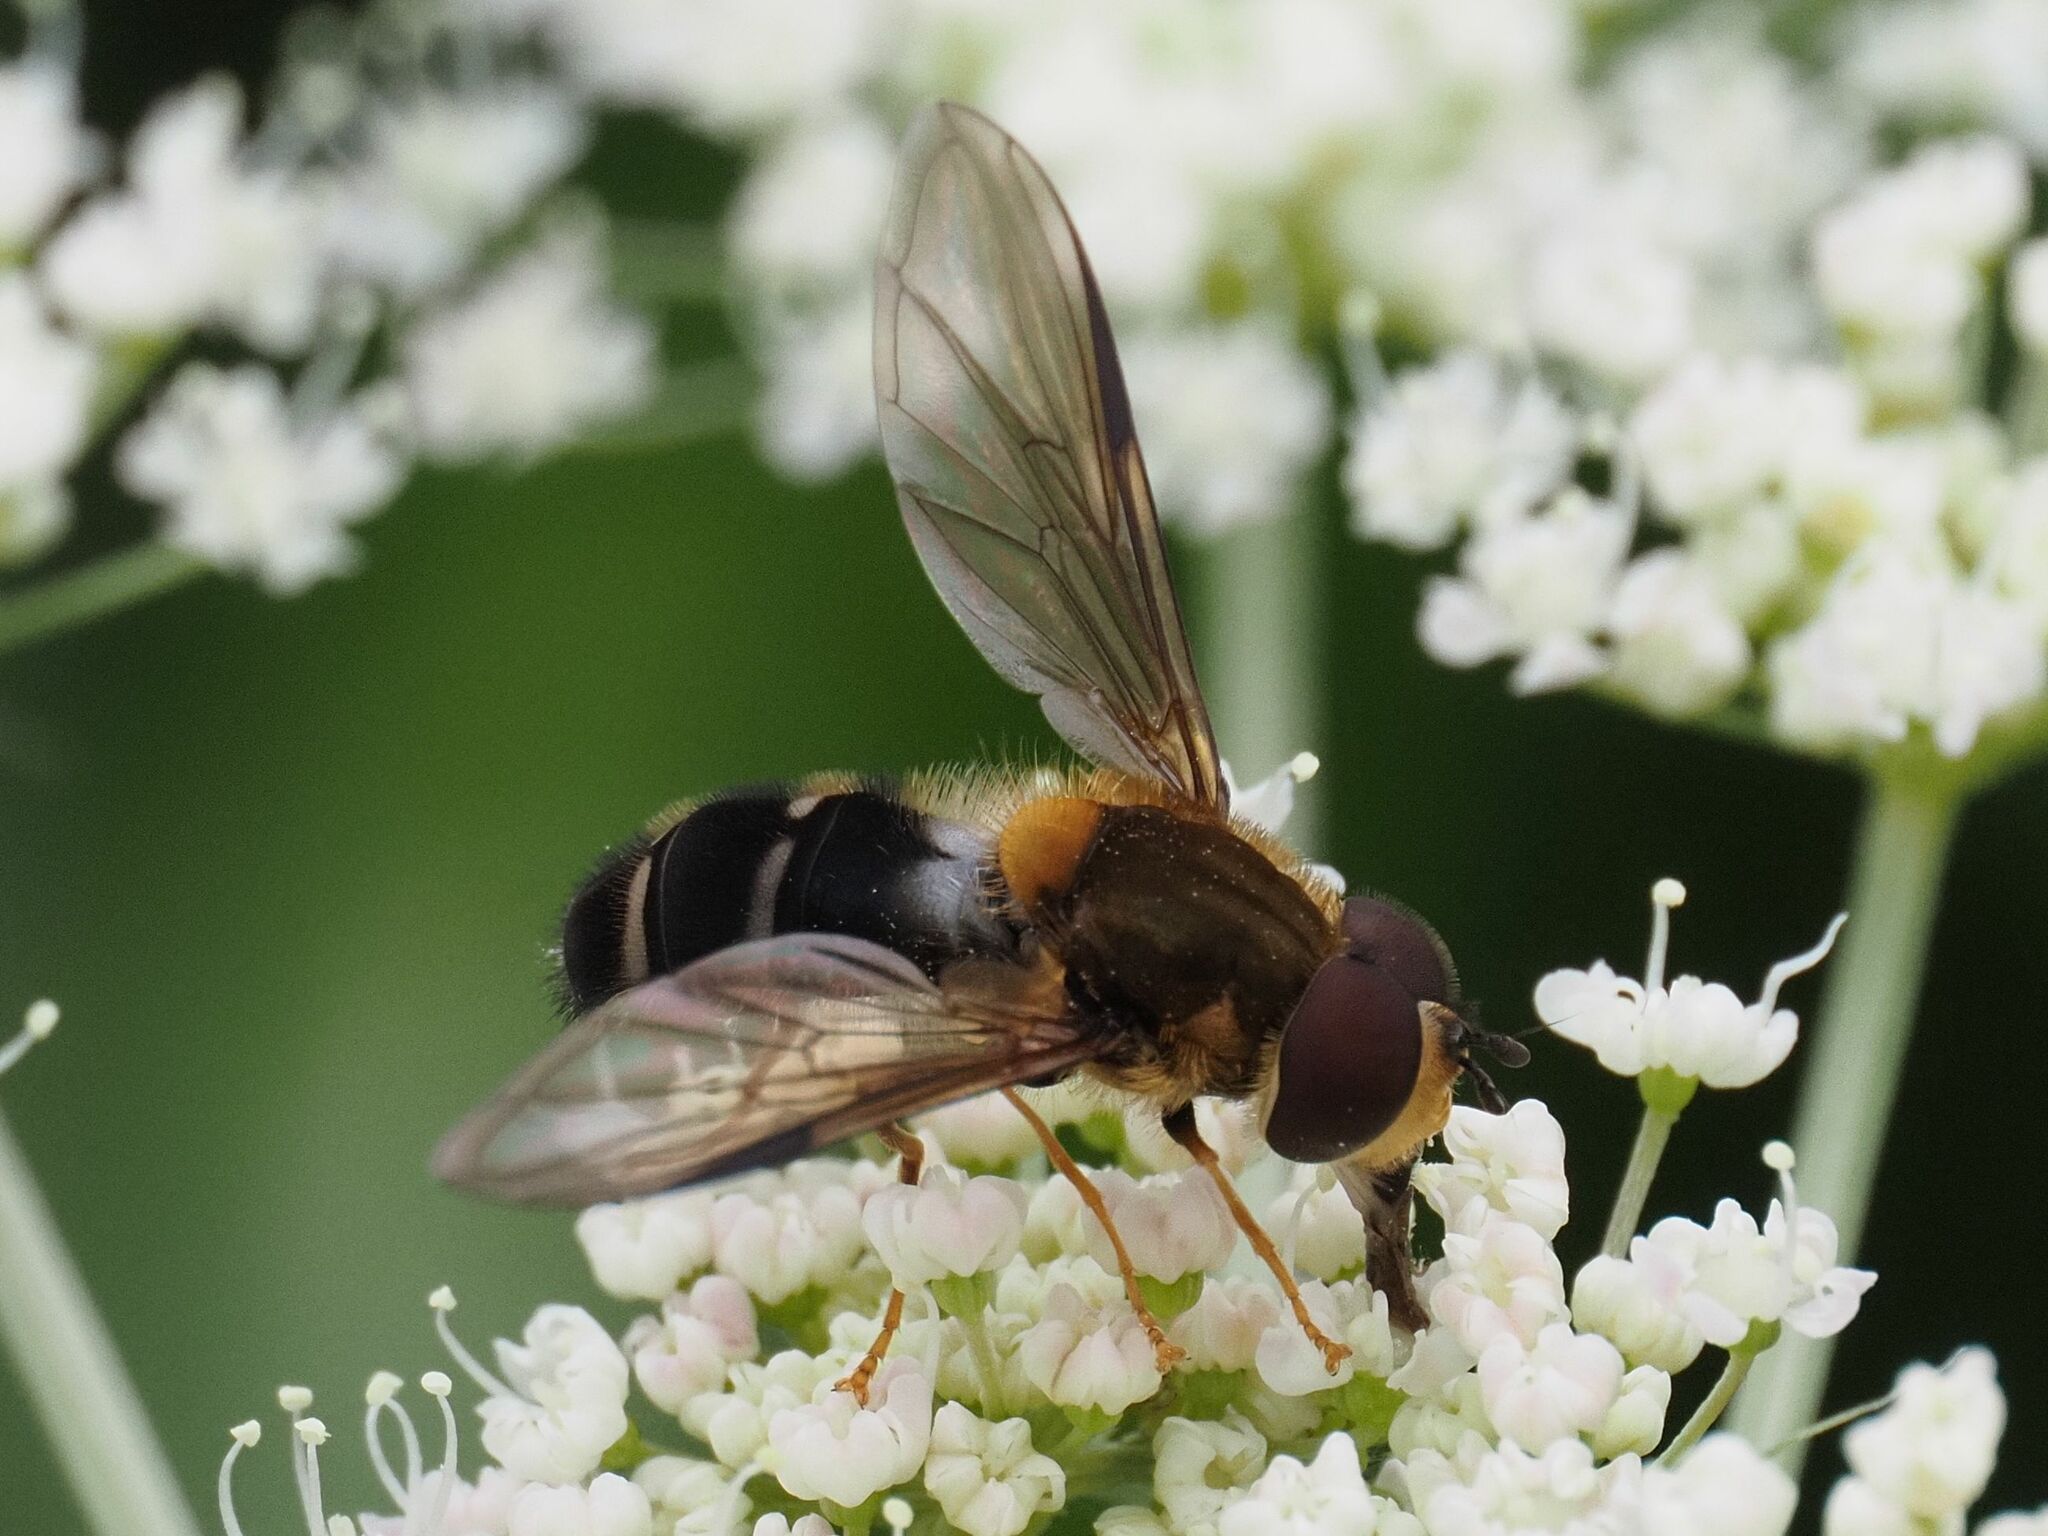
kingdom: Animalia
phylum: Arthropoda
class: Insecta
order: Diptera
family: Syrphidae
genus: Leucozona
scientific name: Leucozona glaucia
